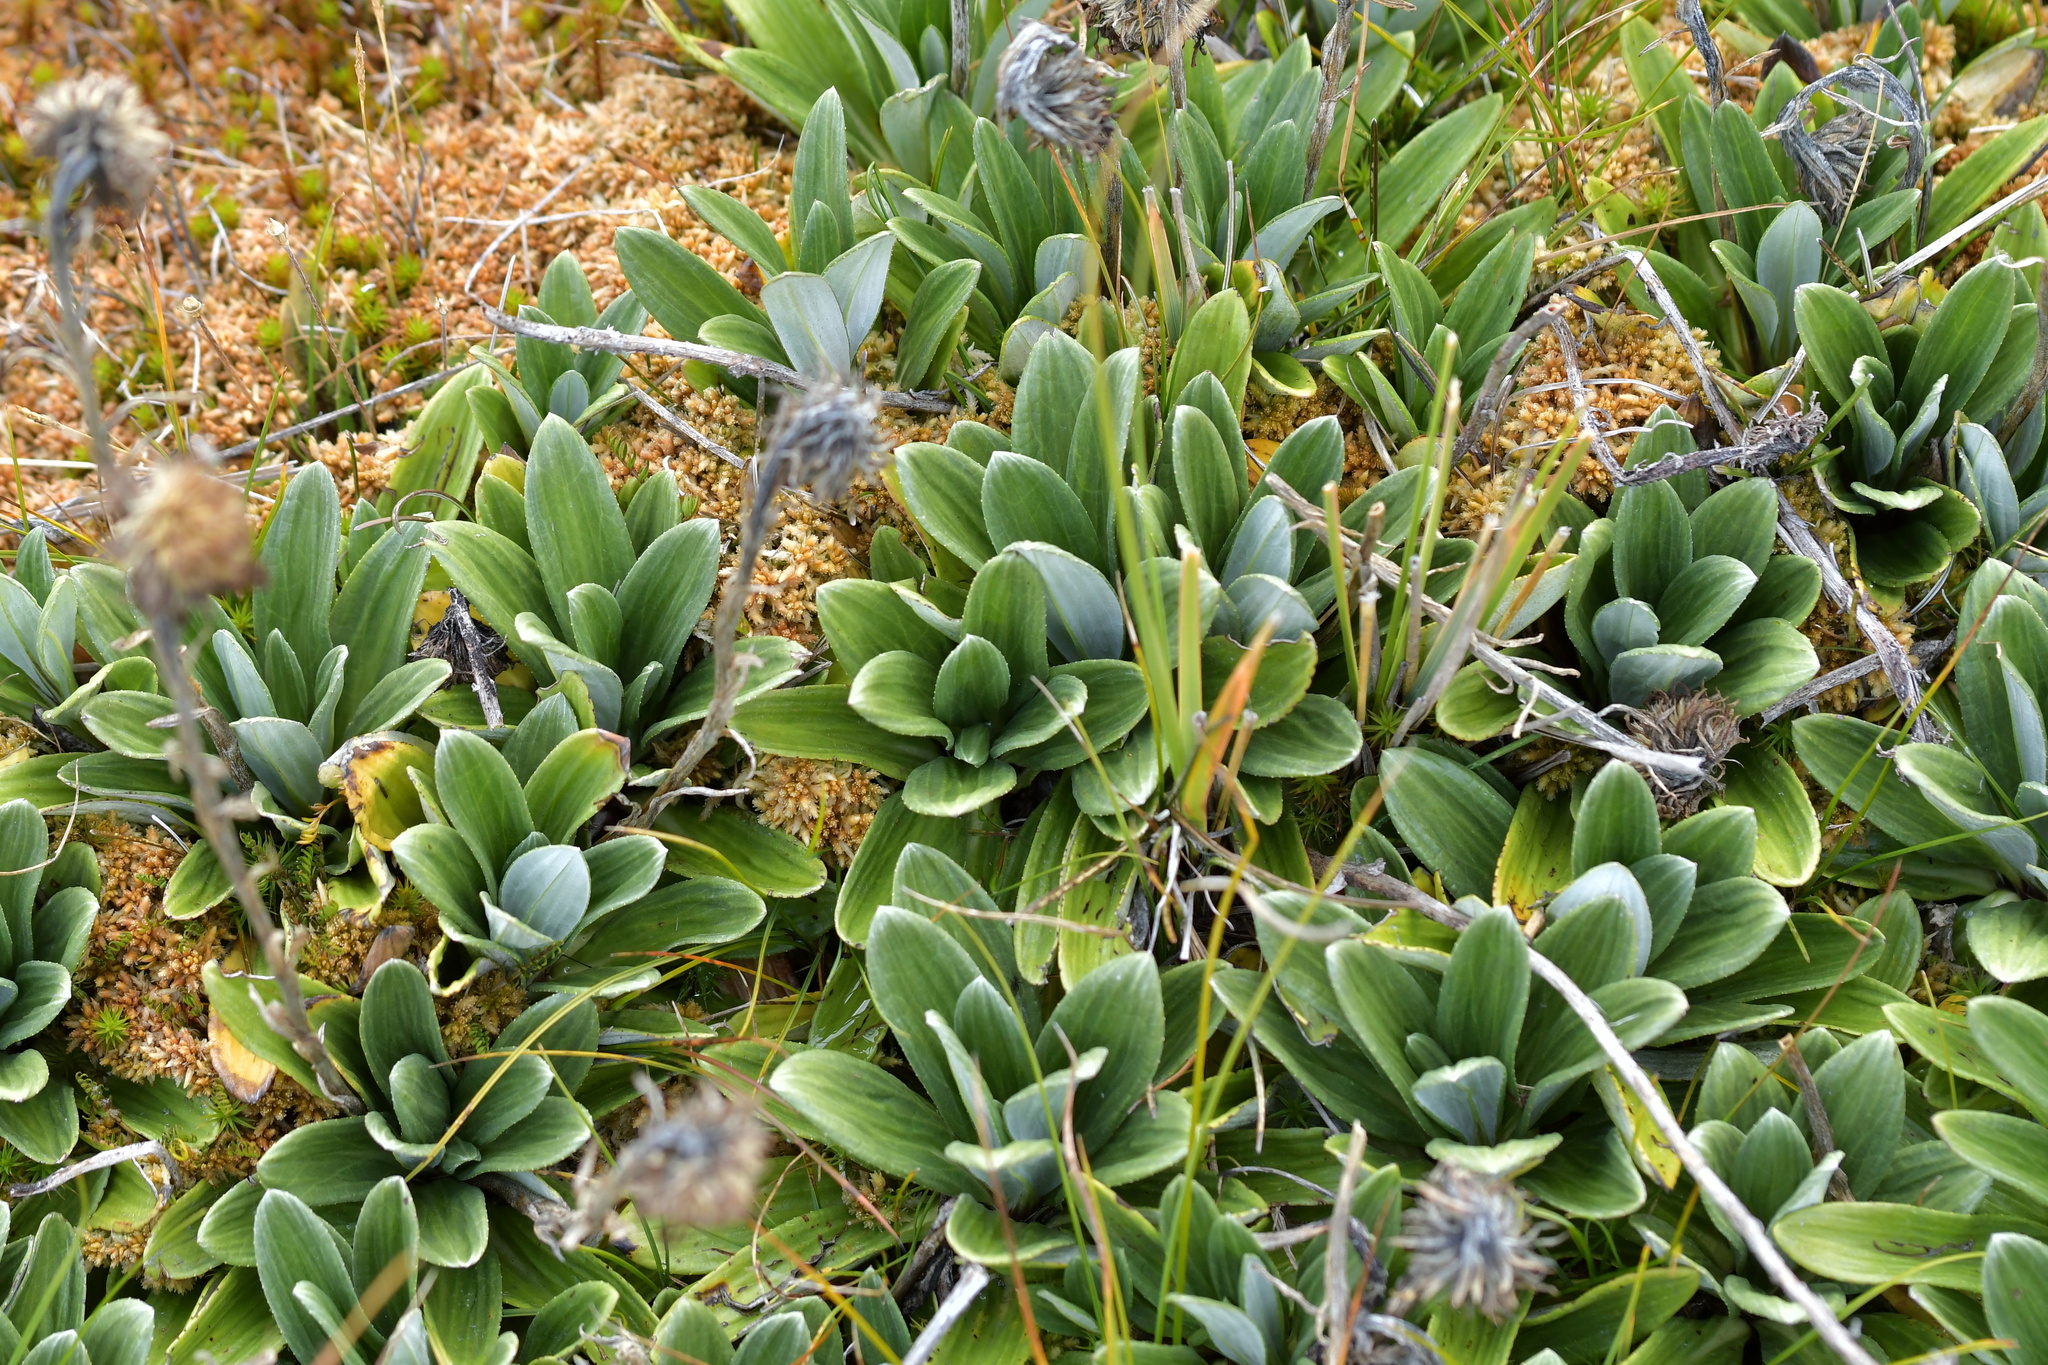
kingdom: Plantae
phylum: Tracheophyta
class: Magnoliopsida
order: Asterales
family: Asteraceae
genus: Celmisia
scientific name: Celmisia haastii
